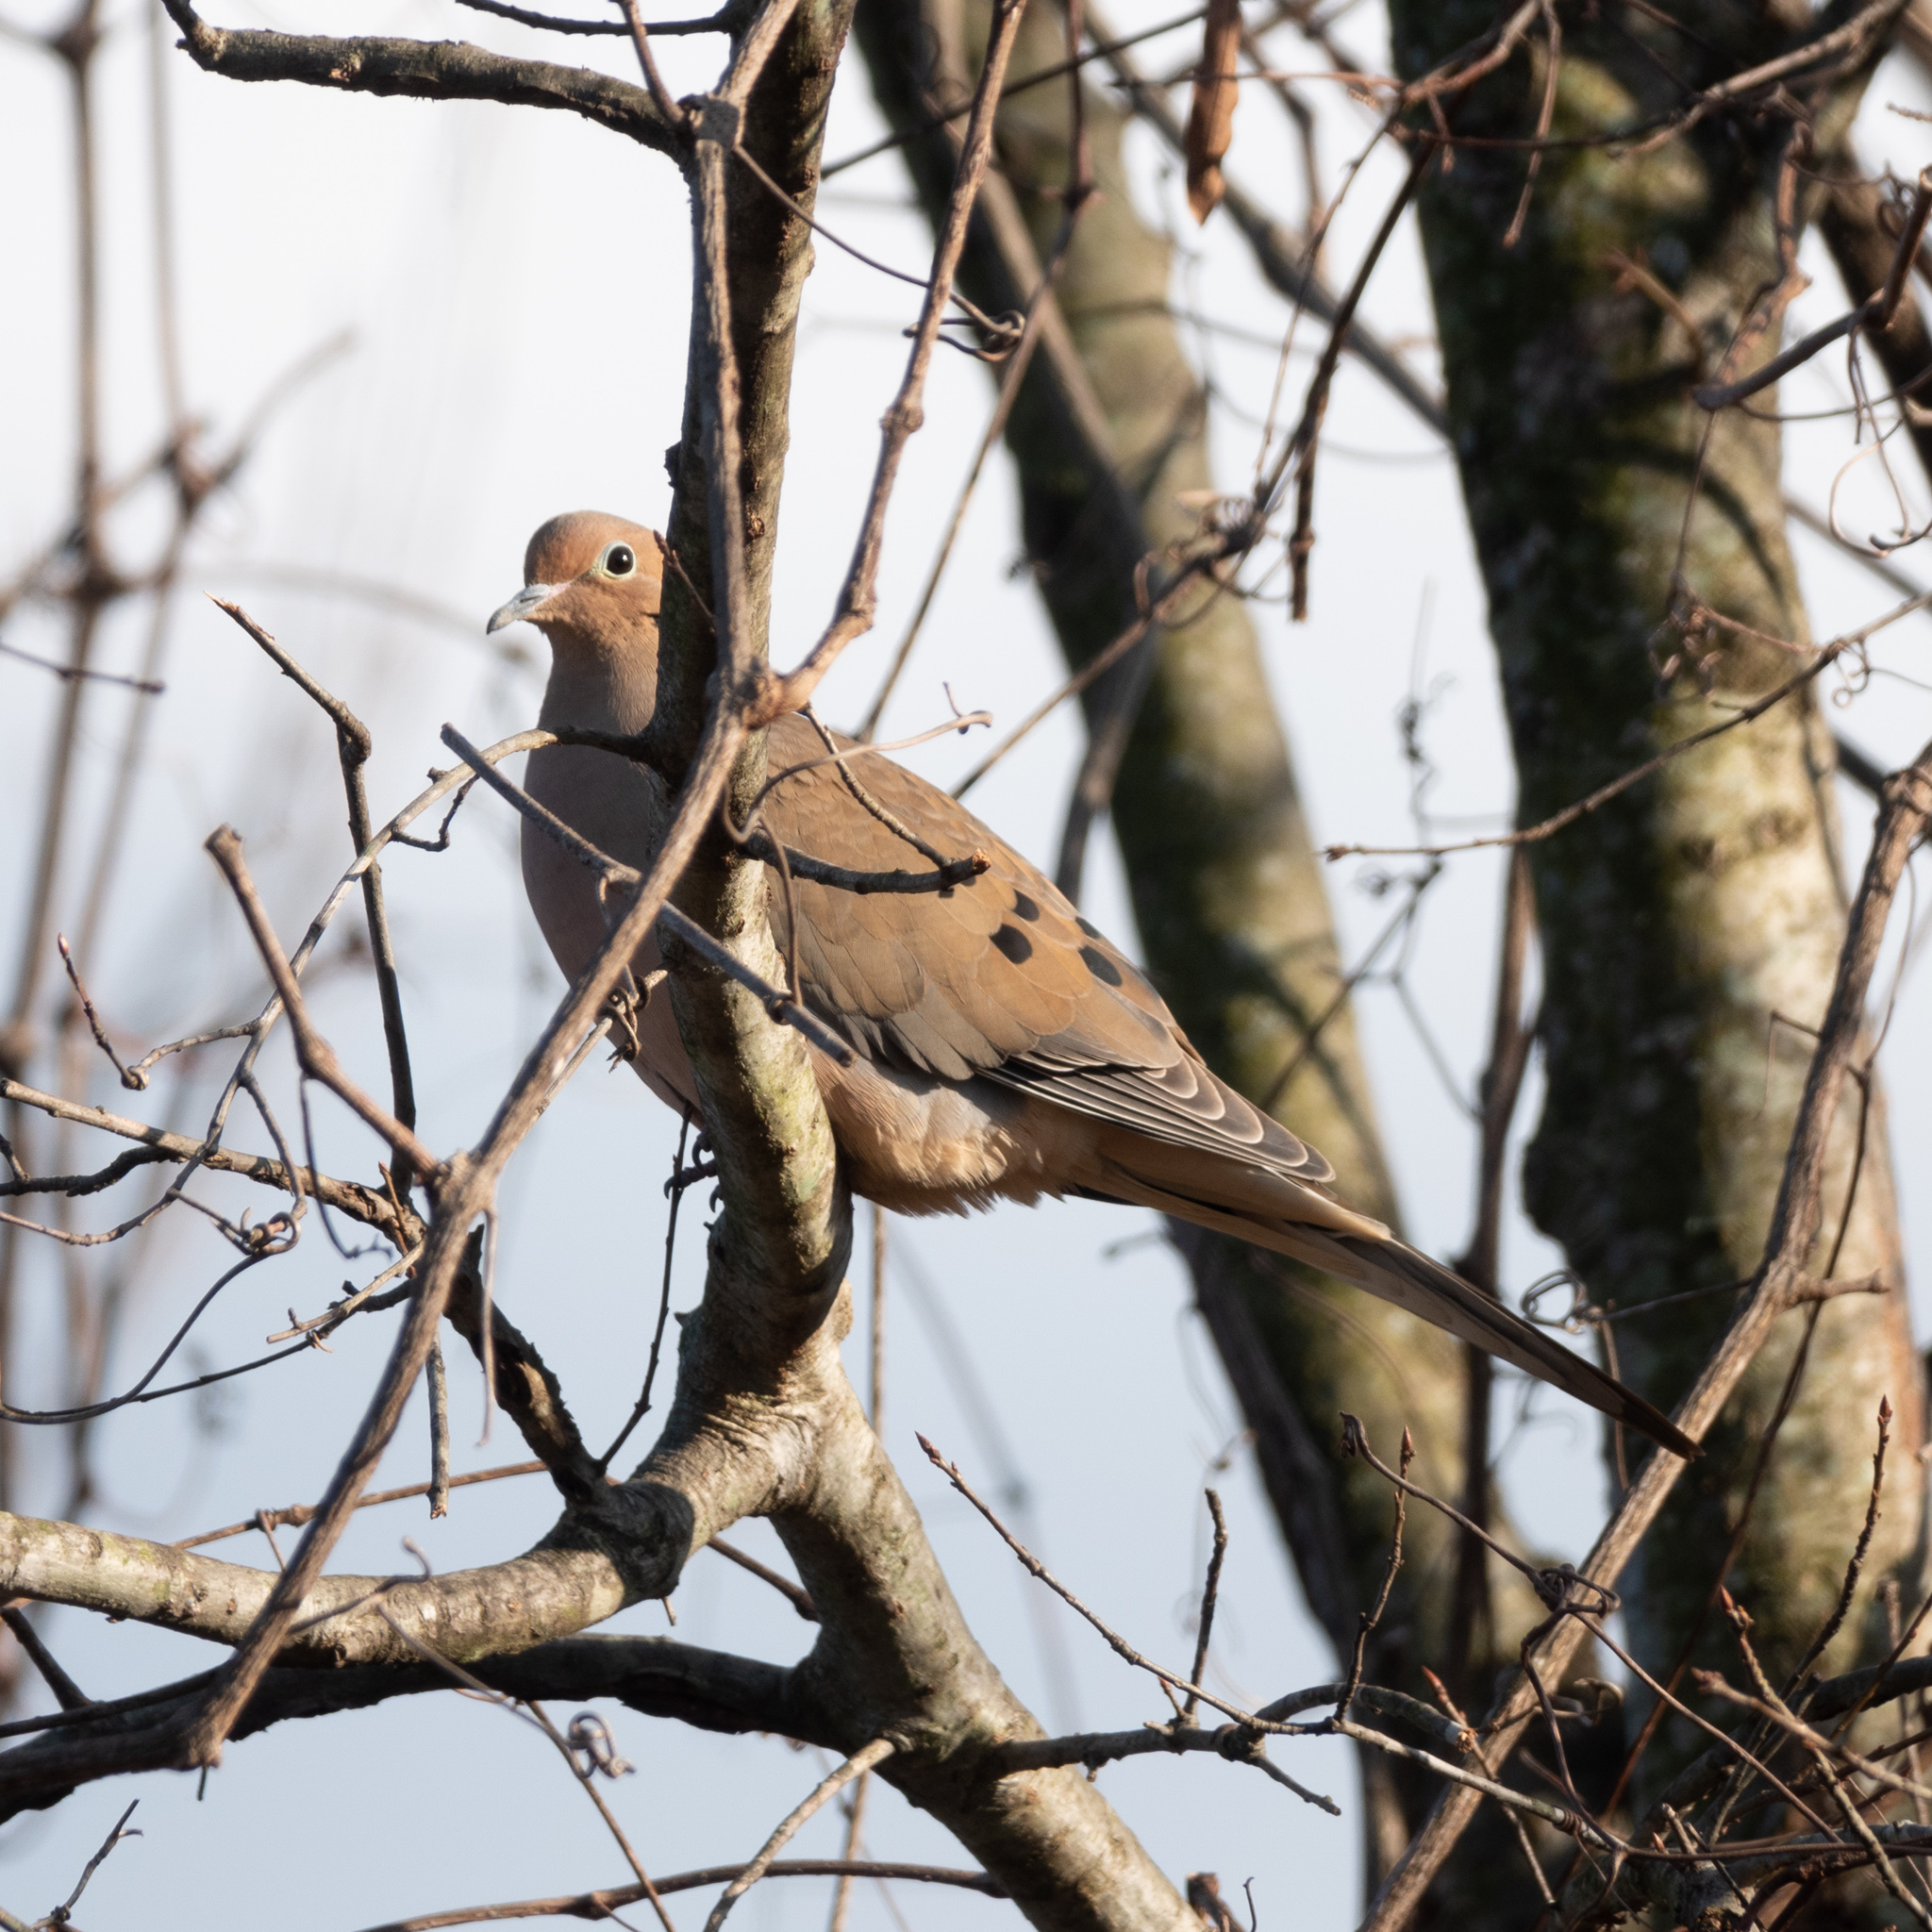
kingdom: Animalia
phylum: Chordata
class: Aves
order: Columbiformes
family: Columbidae
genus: Zenaida
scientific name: Zenaida macroura
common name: Mourning dove
